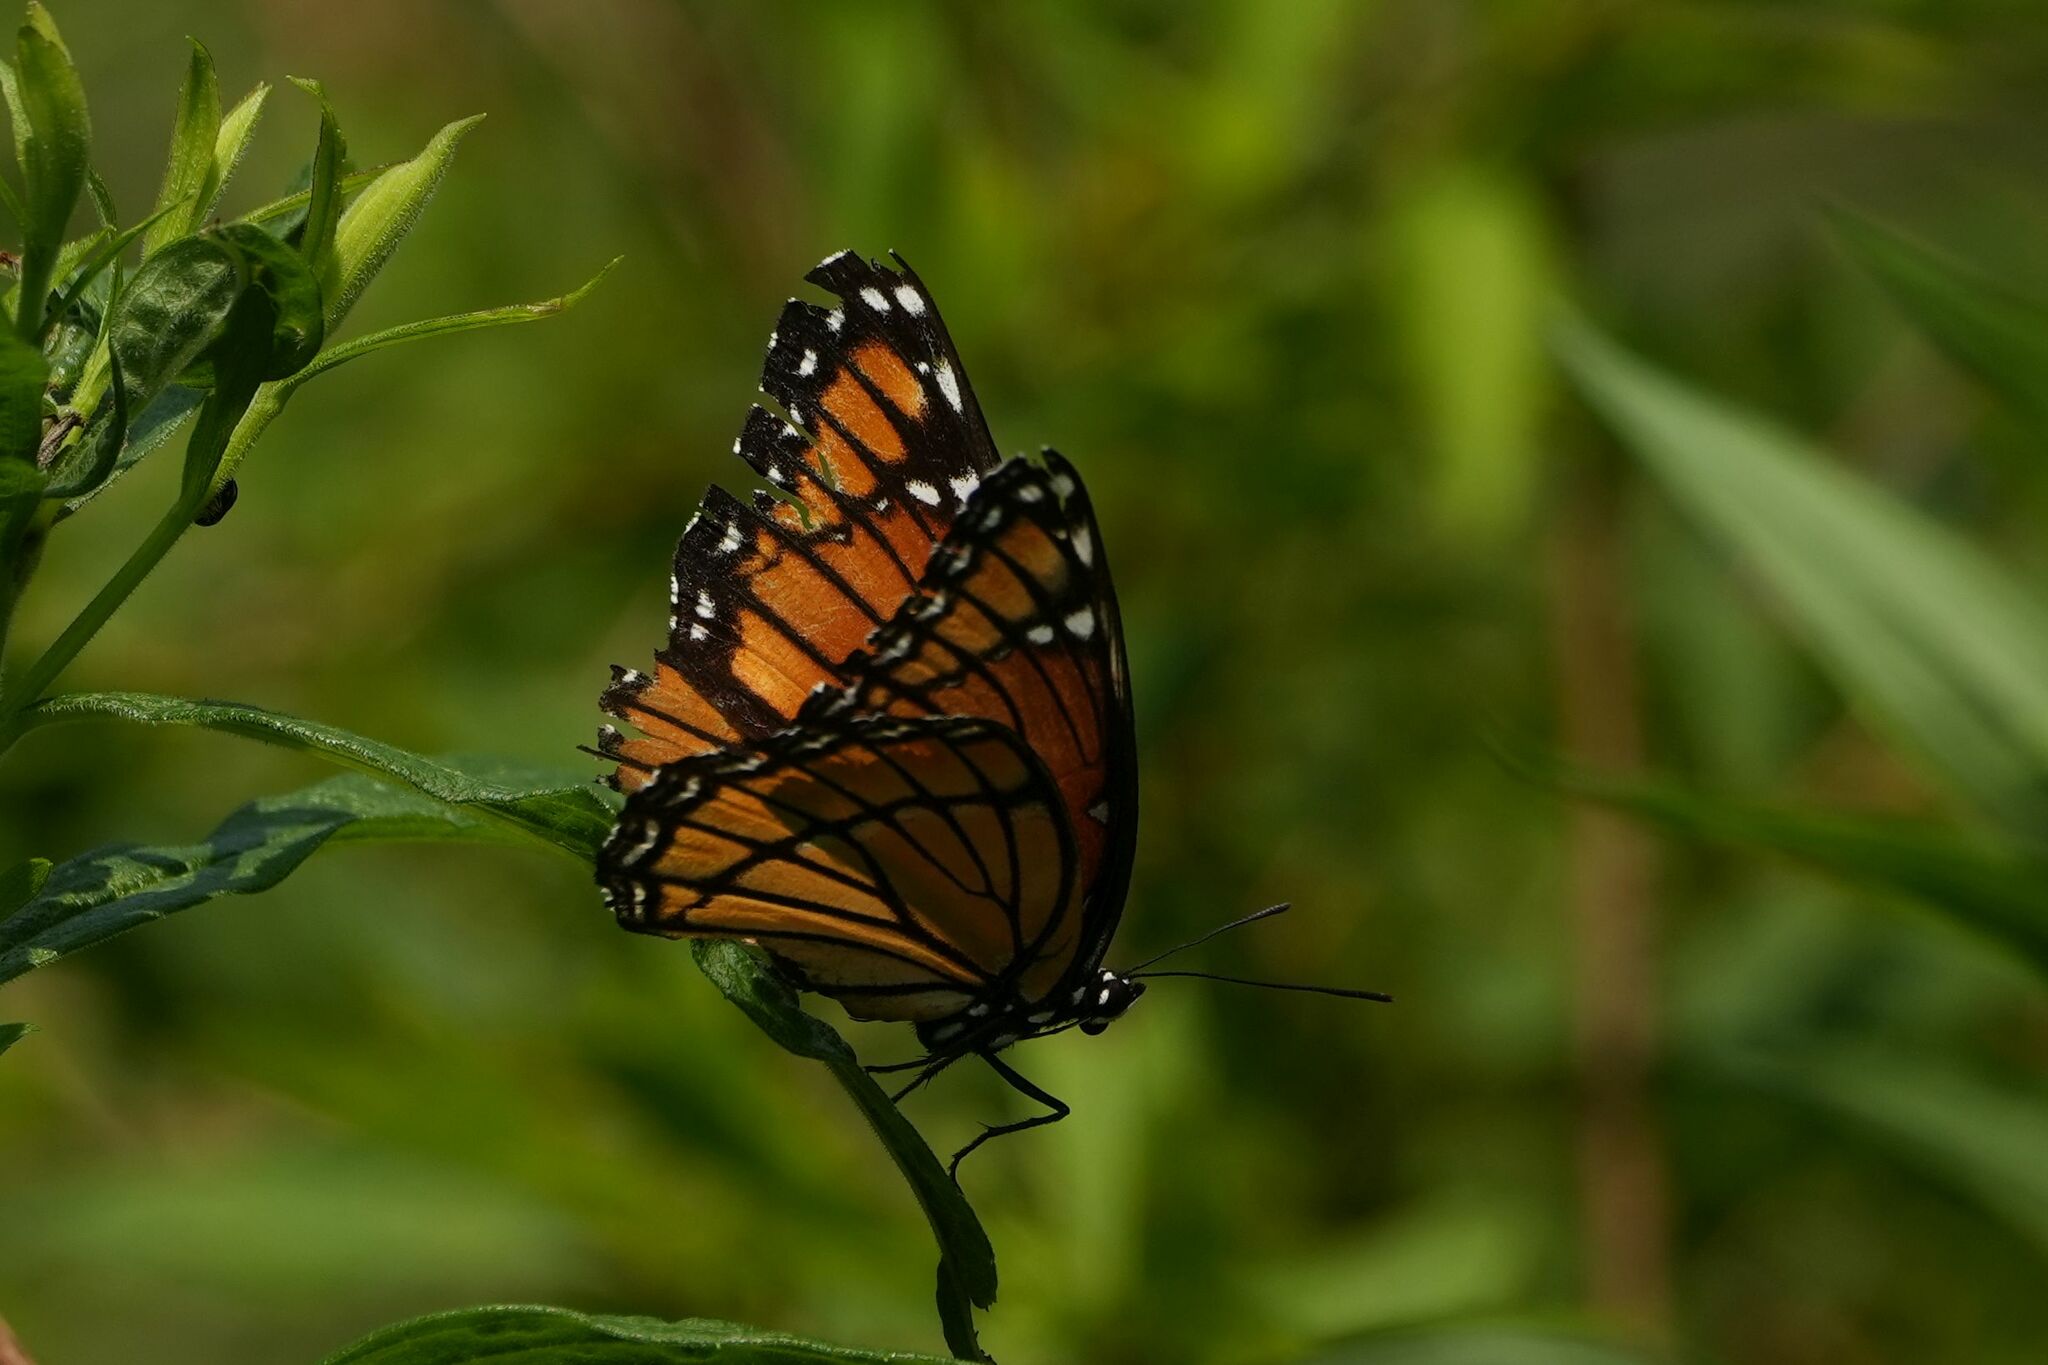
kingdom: Animalia
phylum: Arthropoda
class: Insecta
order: Lepidoptera
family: Nymphalidae
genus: Limenitis
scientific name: Limenitis archippus
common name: Viceroy
